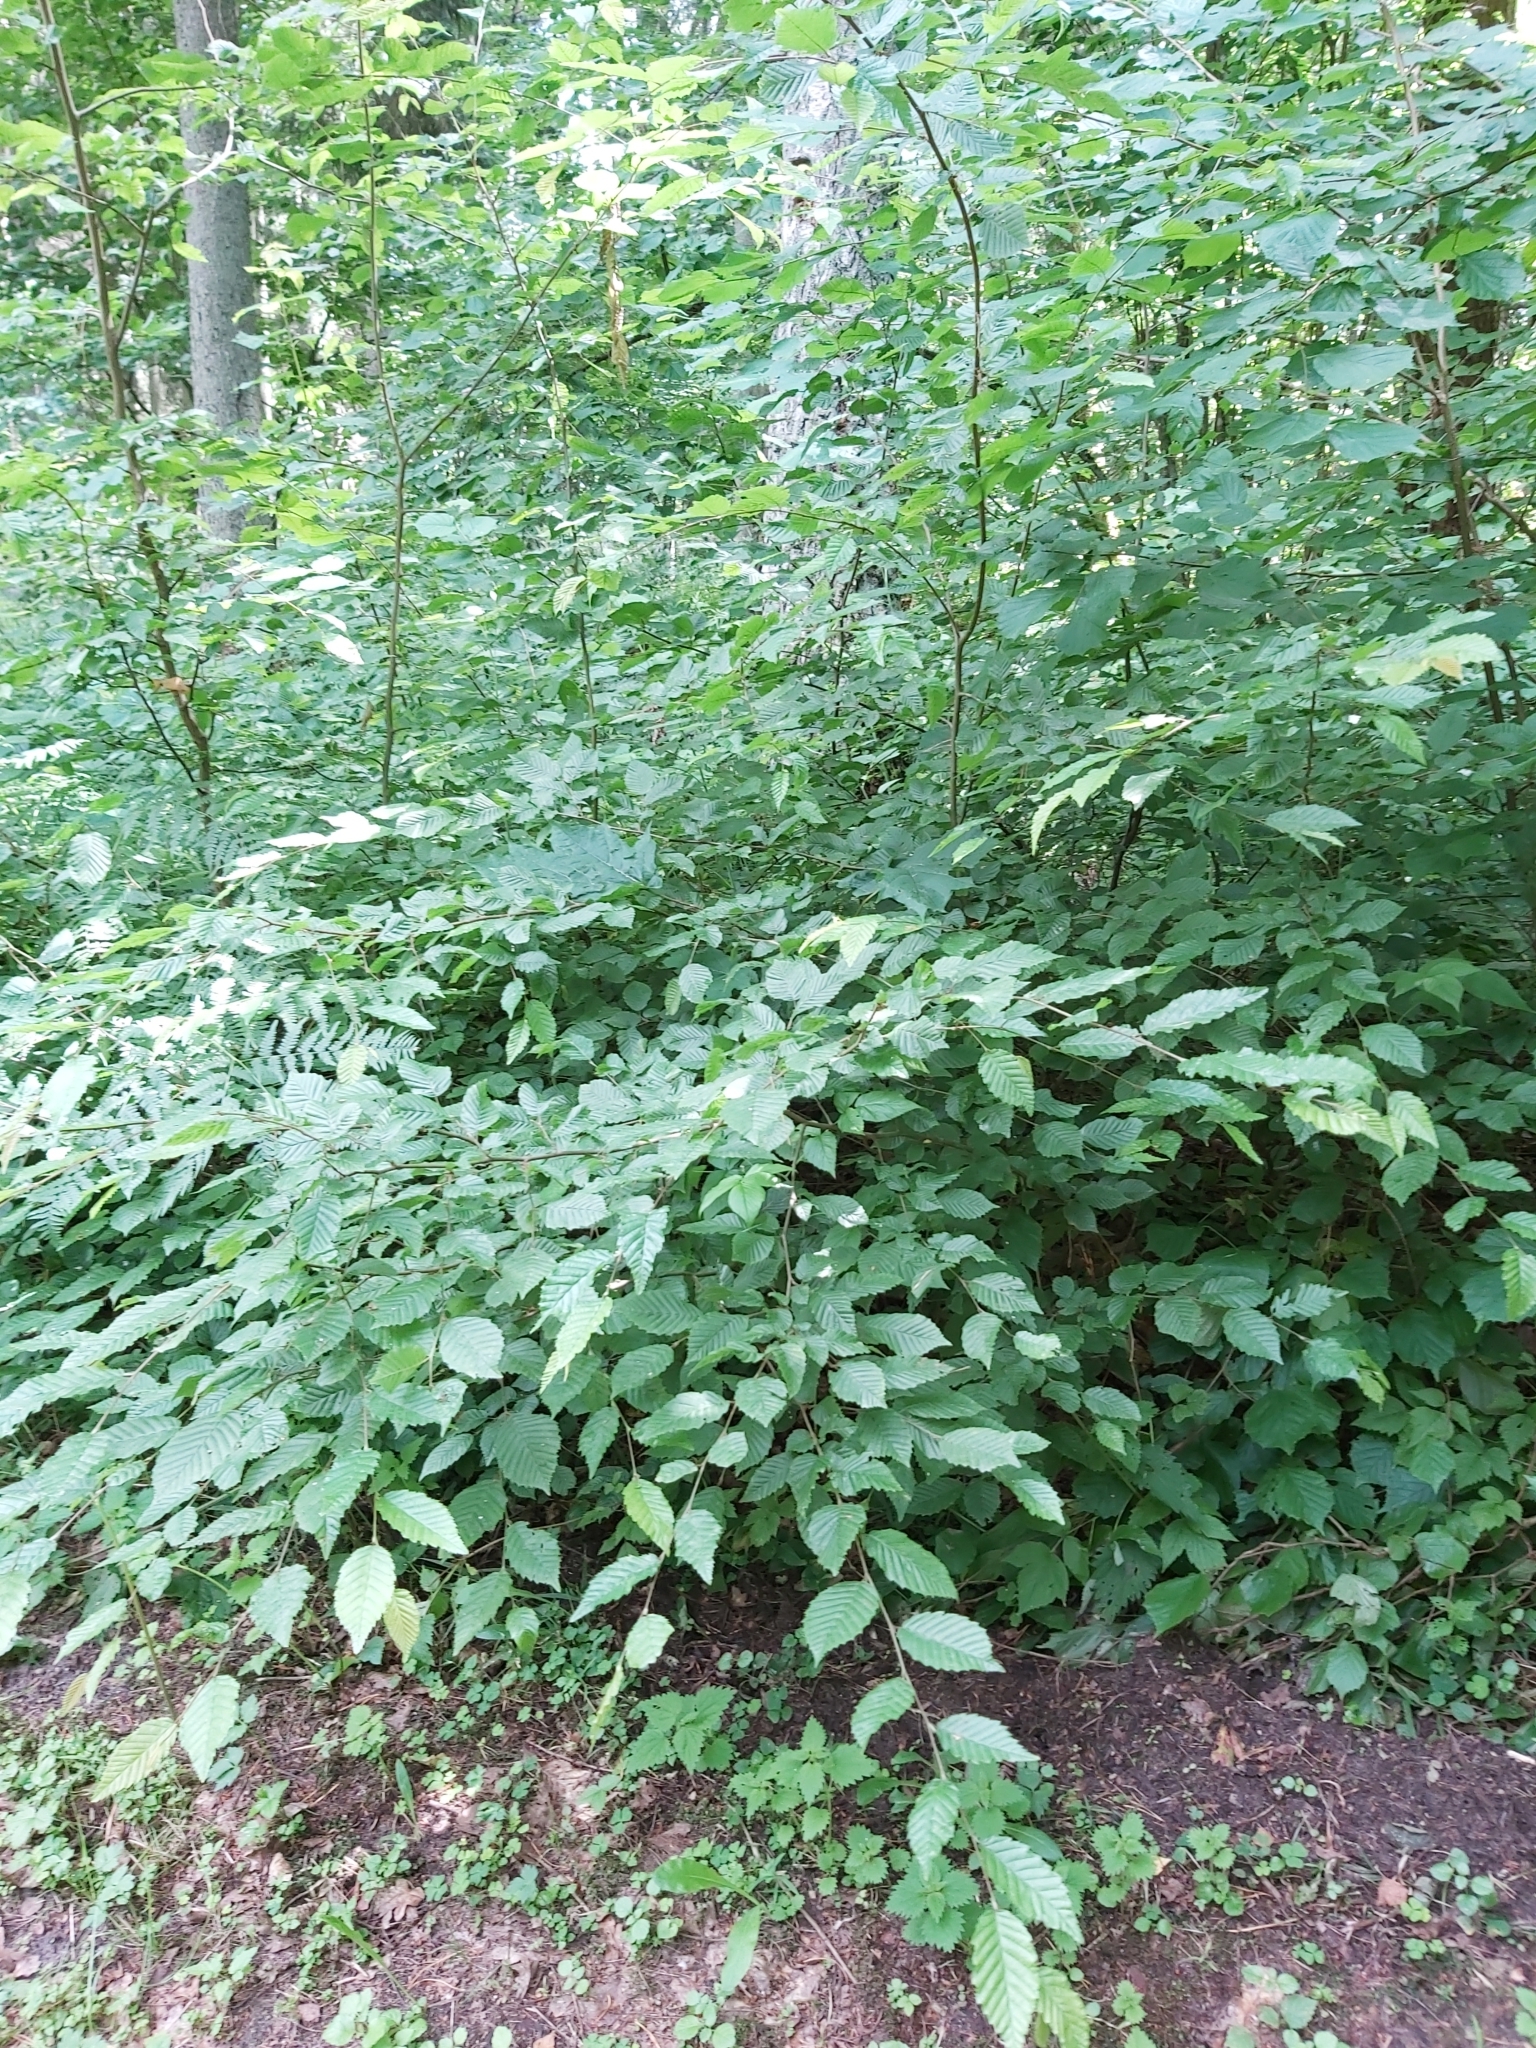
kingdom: Plantae
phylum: Tracheophyta
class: Magnoliopsida
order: Fagales
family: Betulaceae
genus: Carpinus
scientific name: Carpinus betulus
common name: Hornbeam
